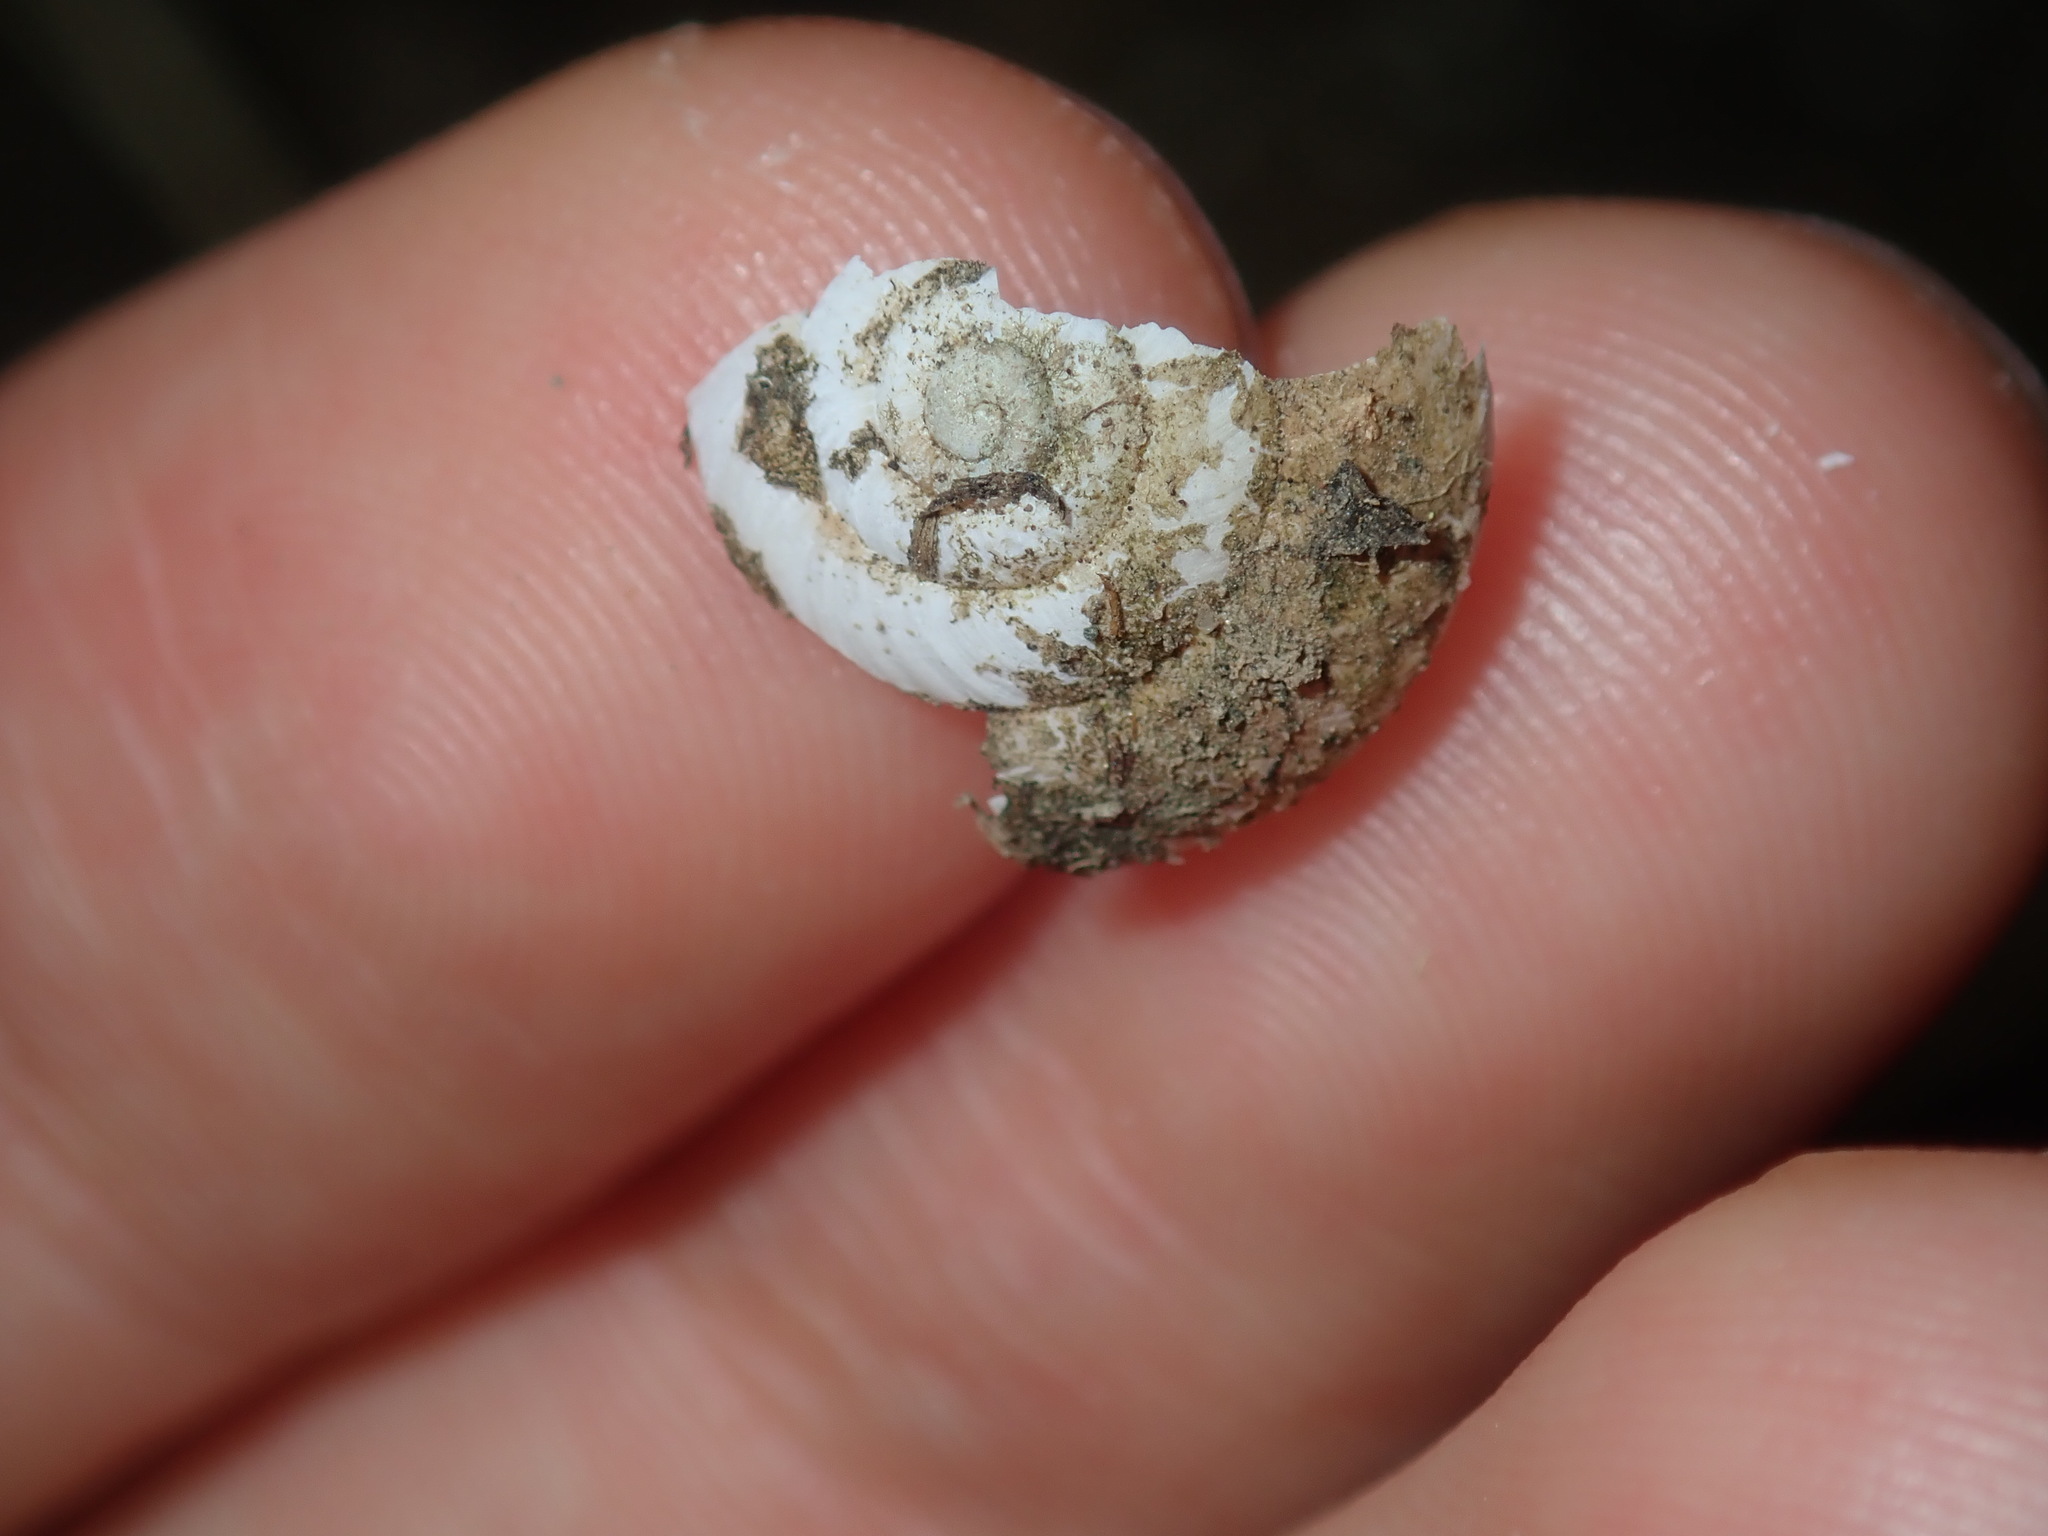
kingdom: Animalia
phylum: Mollusca
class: Gastropoda
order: Stylommatophora
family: Camaenidae
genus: Sauroconcha
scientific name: Sauroconcha sheai
